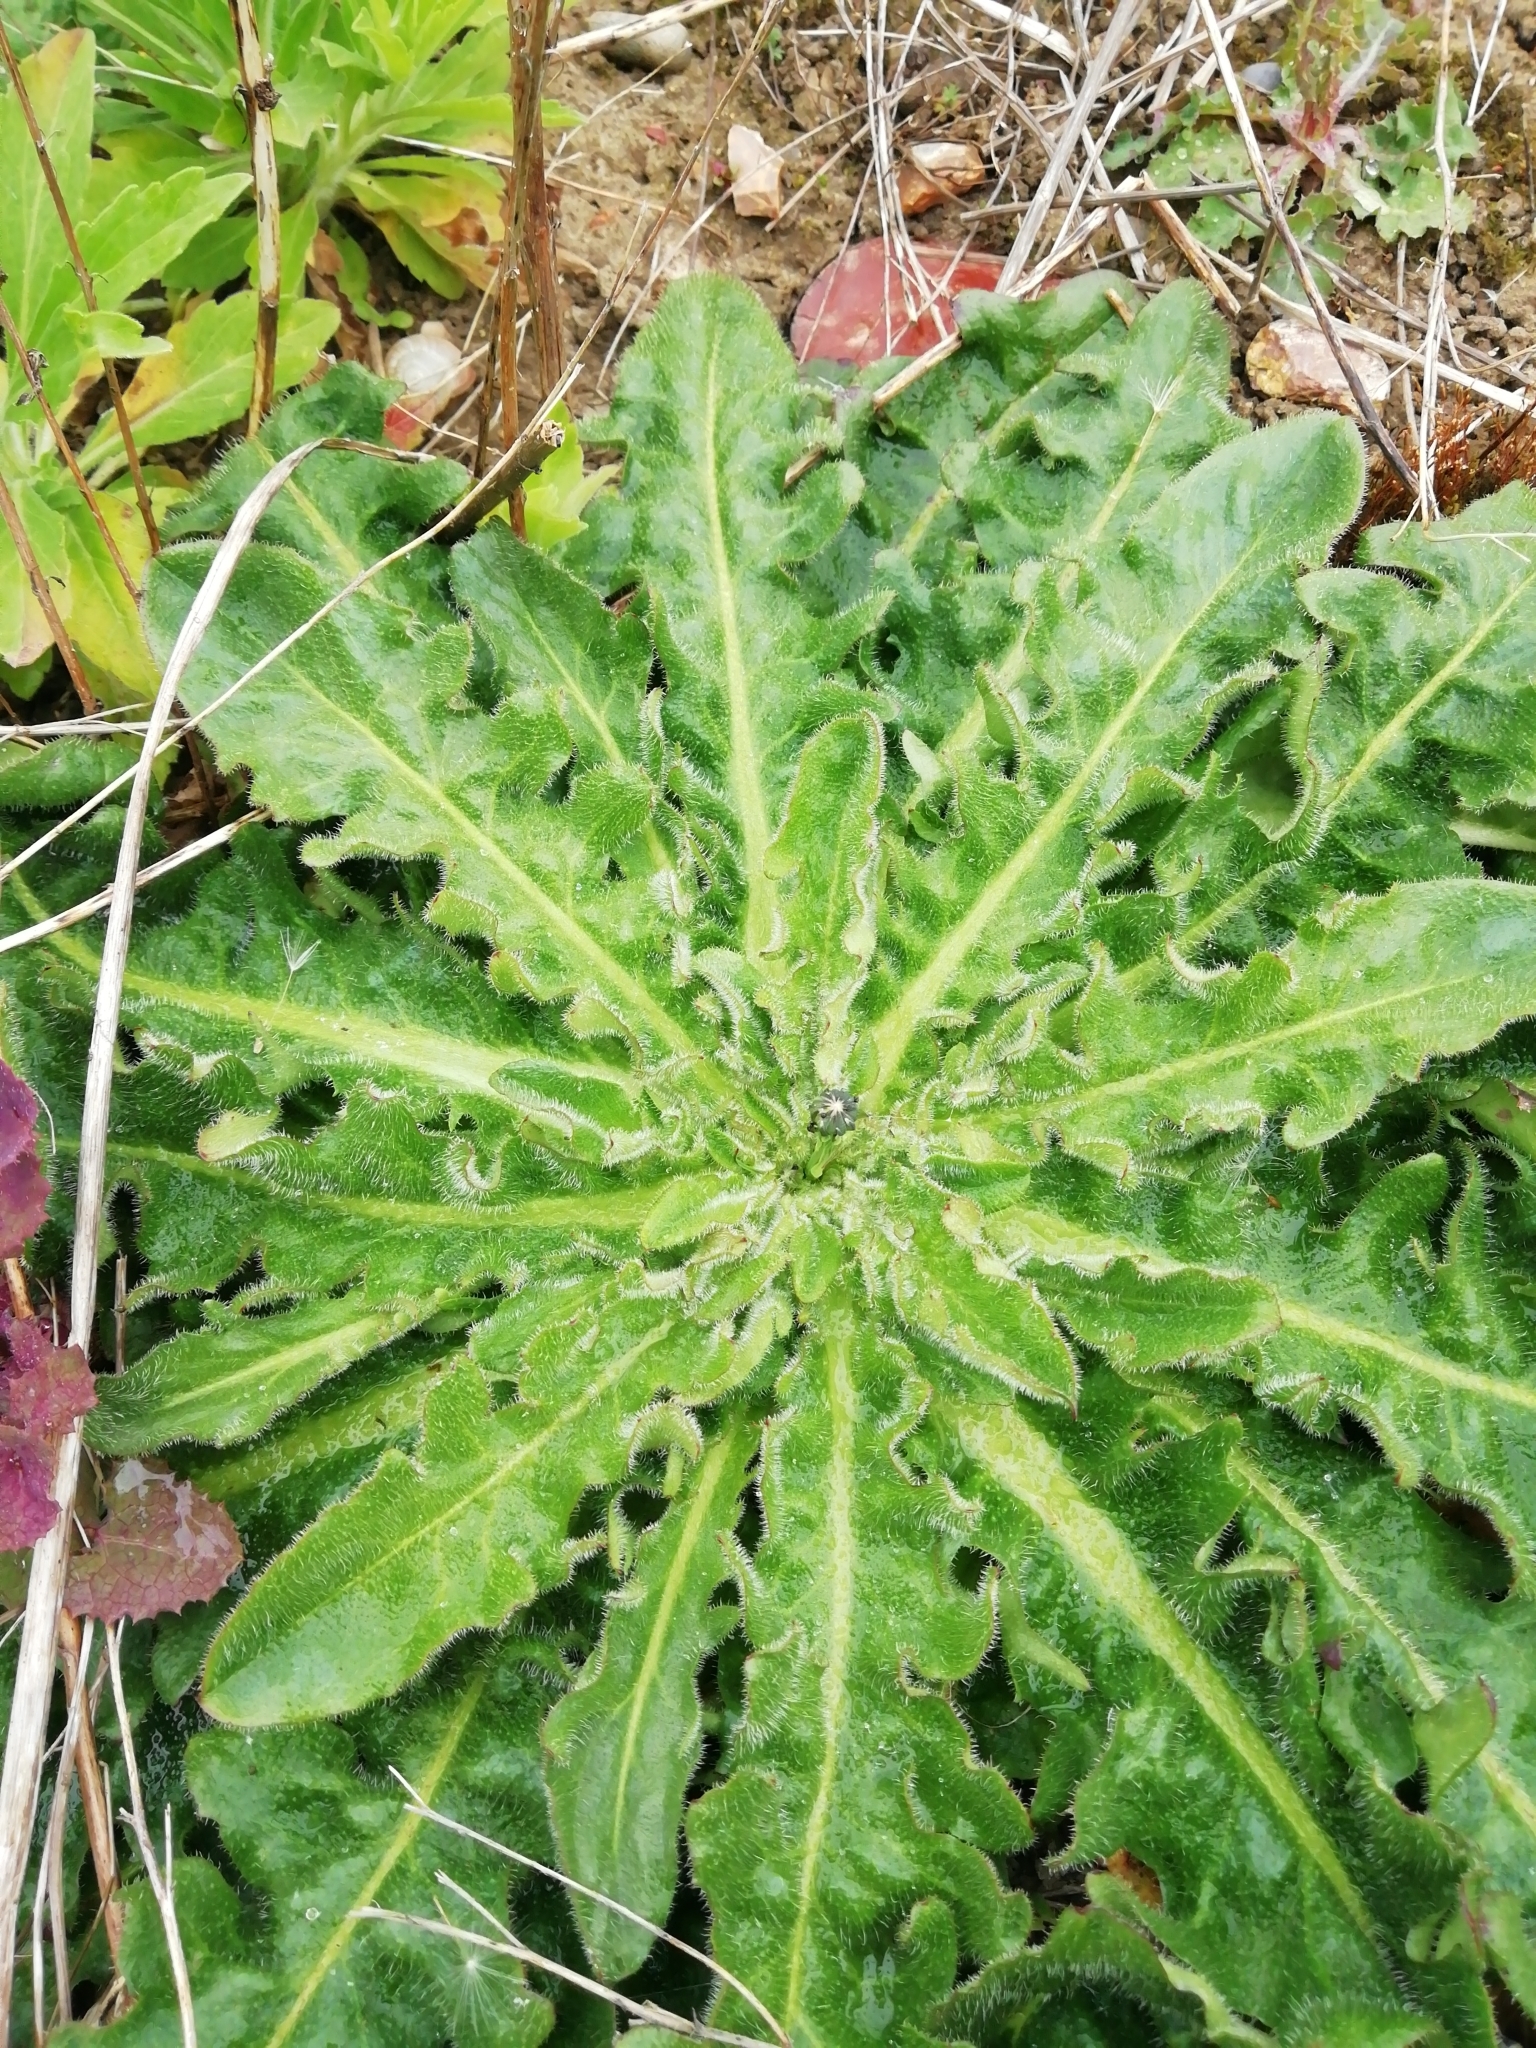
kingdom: Plantae
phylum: Tracheophyta
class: Magnoliopsida
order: Asterales
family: Asteraceae
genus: Hypochaeris
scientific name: Hypochaeris radicata
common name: Flatweed
